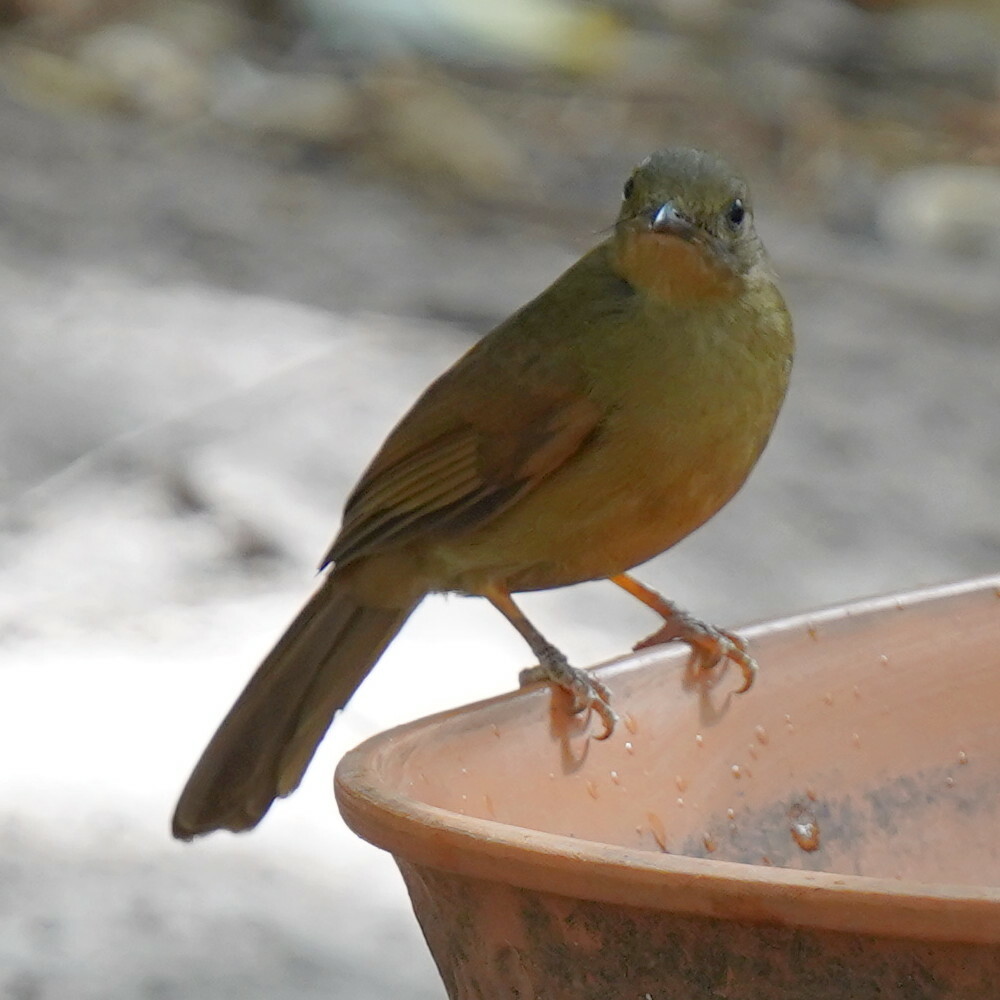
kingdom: Animalia
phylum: Chordata
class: Aves
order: Passeriformes
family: Pycnonotidae
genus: Eurillas
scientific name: Eurillas virens
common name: Little greenbul
